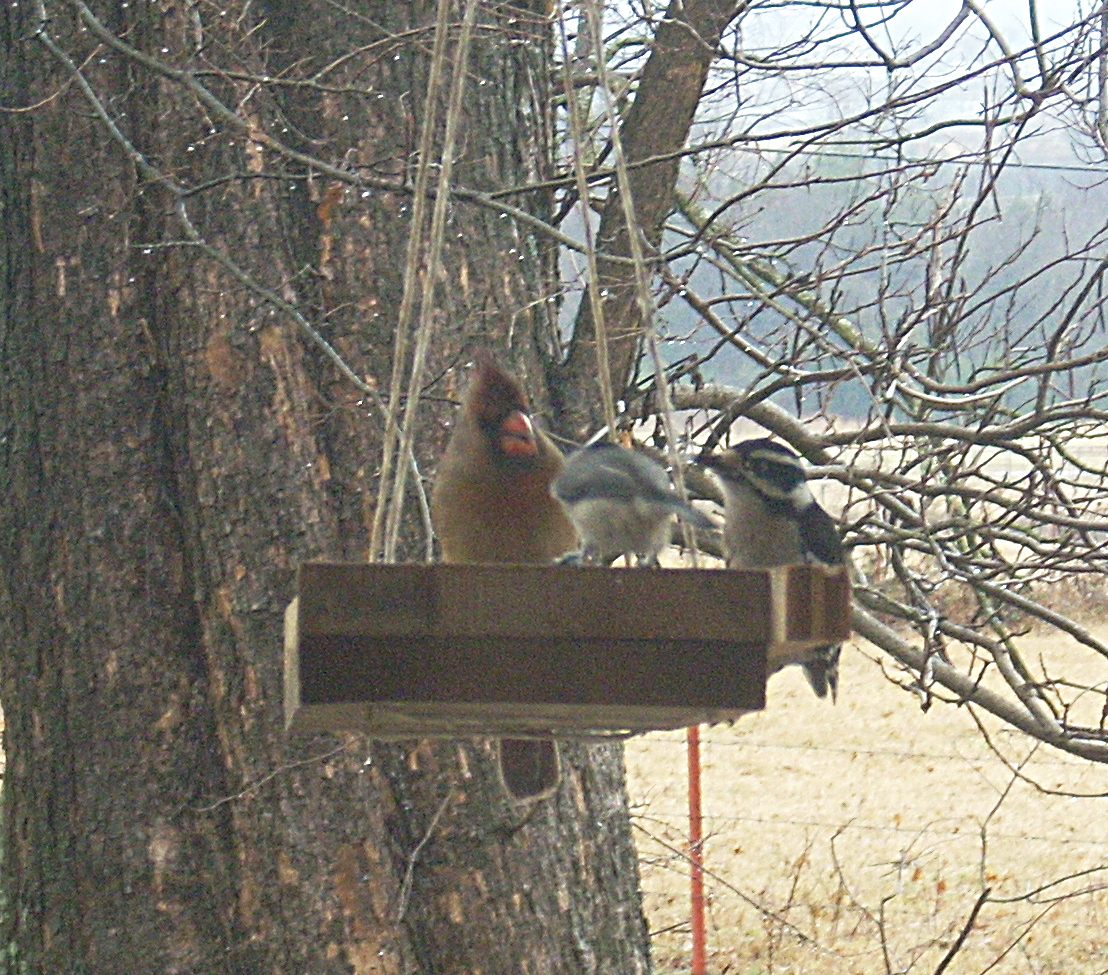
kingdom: Animalia
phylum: Chordata
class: Aves
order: Piciformes
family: Picidae
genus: Dryobates
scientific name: Dryobates pubescens
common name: Downy woodpecker
